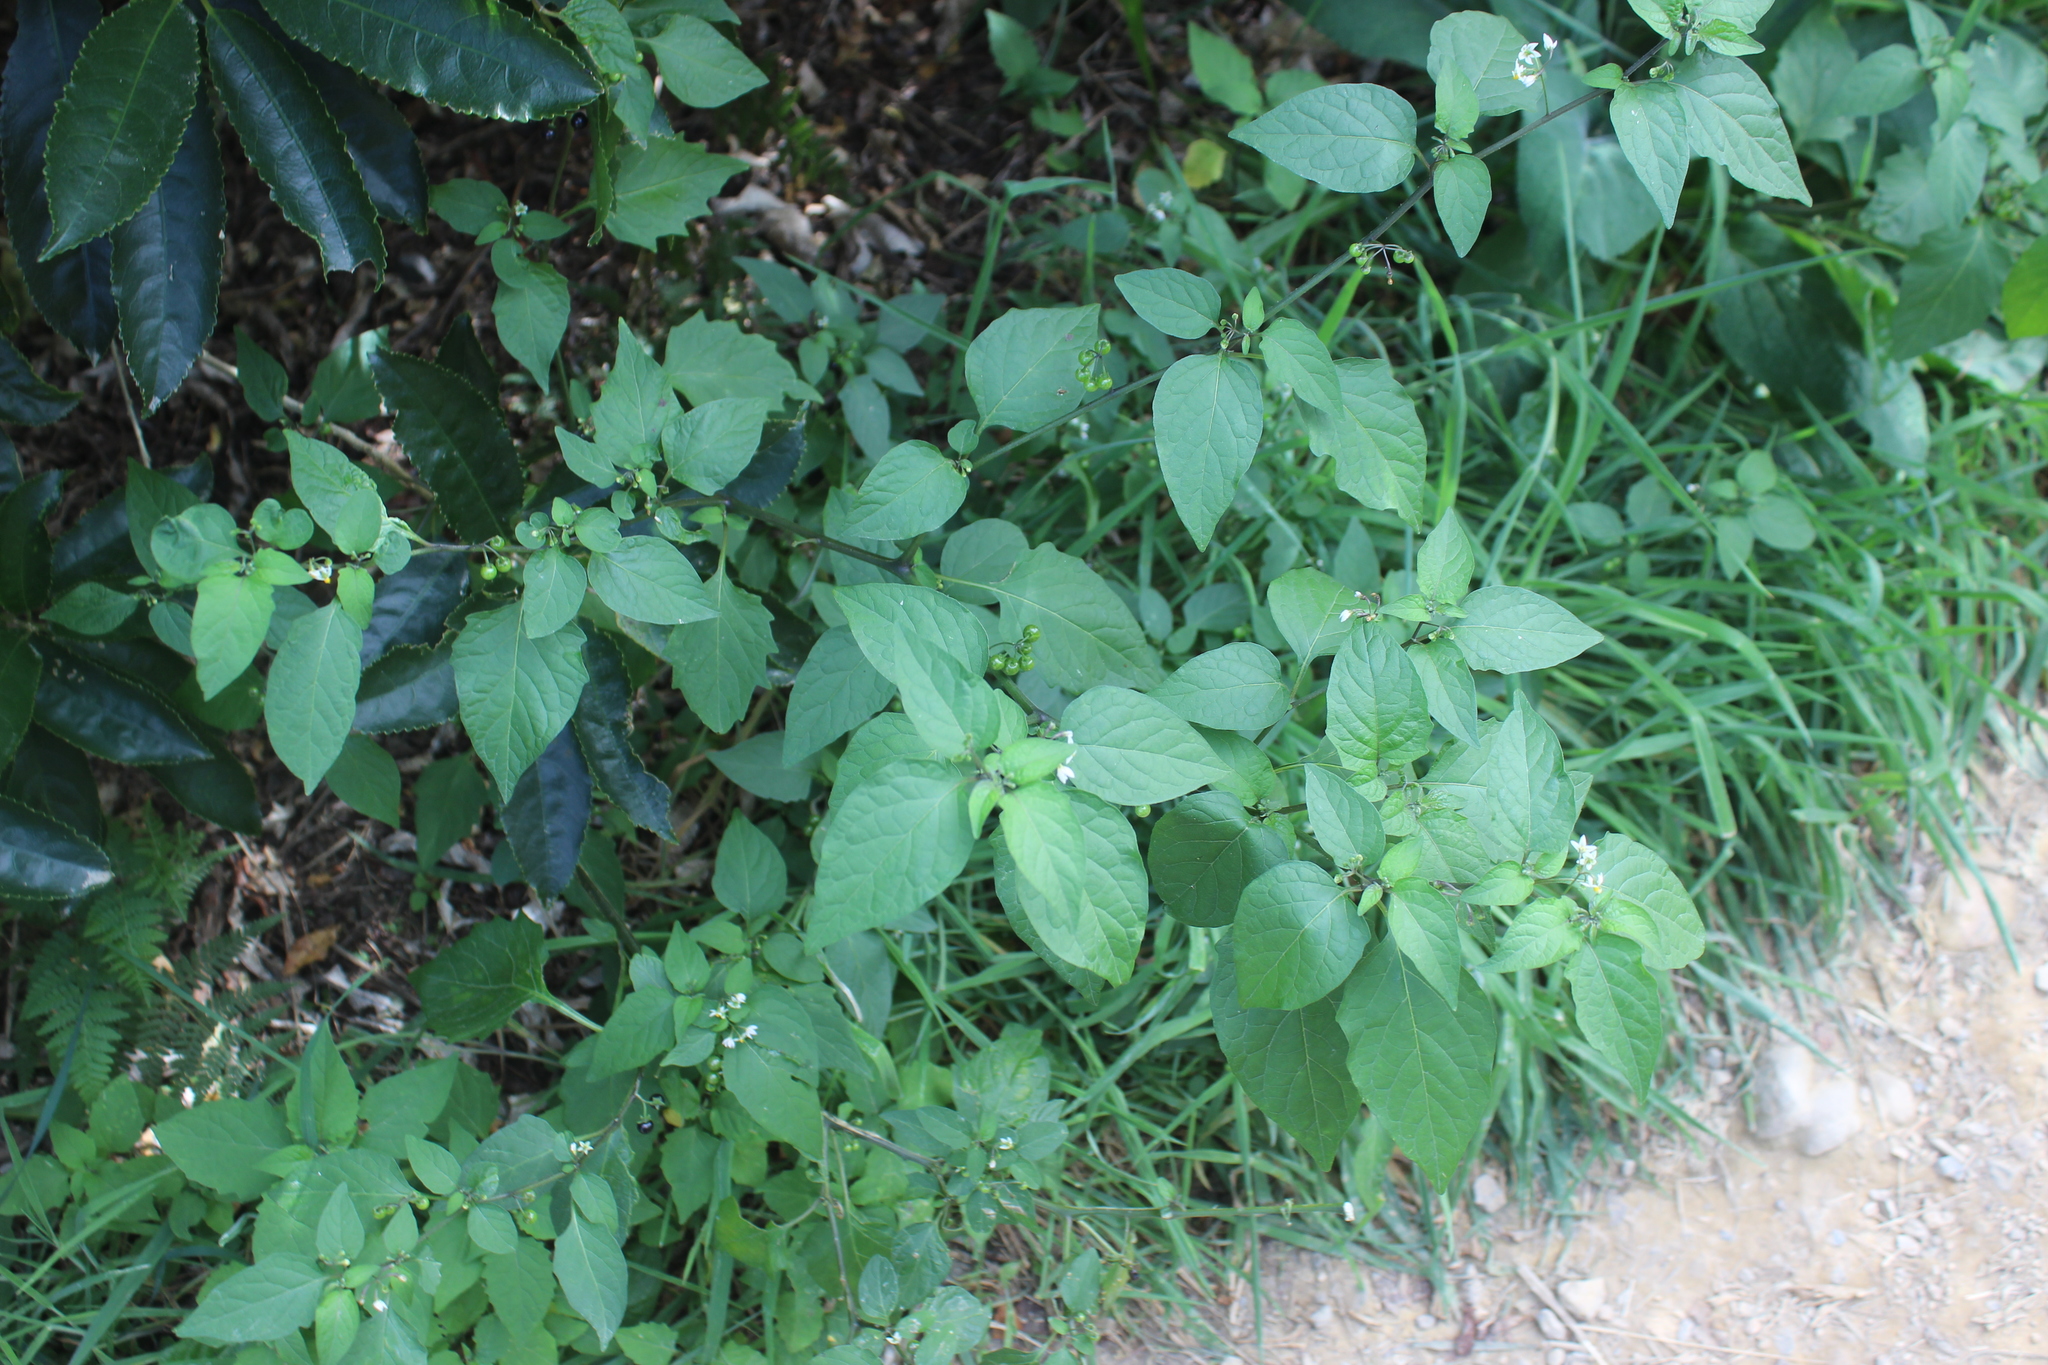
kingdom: Plantae
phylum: Tracheophyta
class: Magnoliopsida
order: Solanales
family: Solanaceae
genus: Solanum
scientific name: Solanum americanum
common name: American black nightshade
